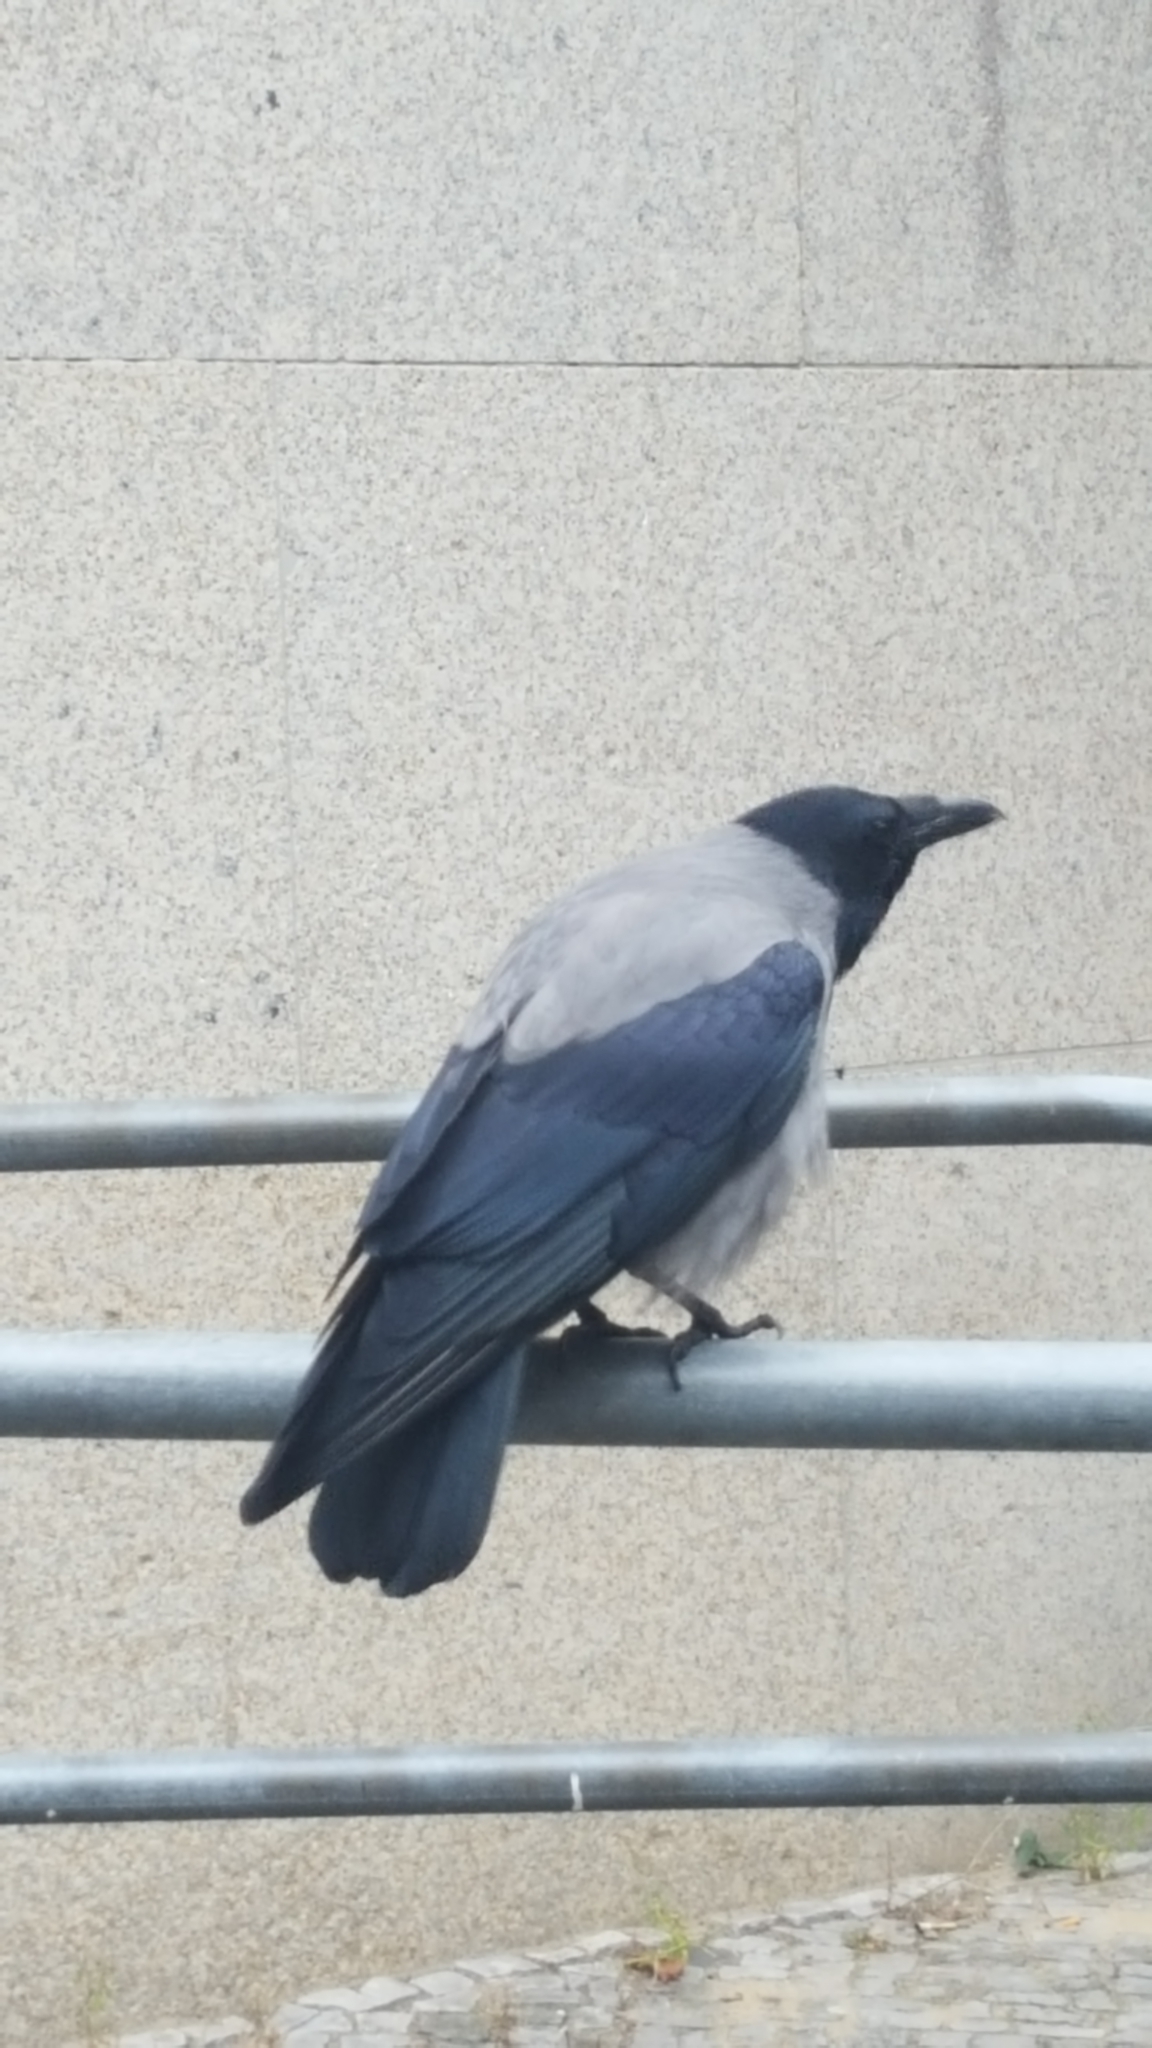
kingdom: Animalia
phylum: Chordata
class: Aves
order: Passeriformes
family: Corvidae
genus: Corvus
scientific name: Corvus cornix
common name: Hooded crow
